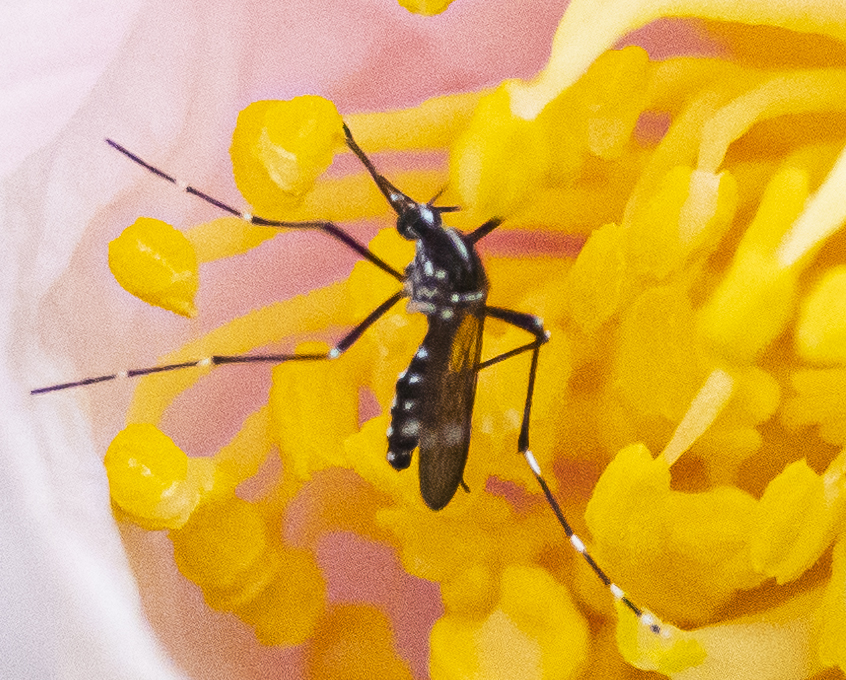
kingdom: Animalia
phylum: Arthropoda
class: Insecta
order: Diptera
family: Culicidae
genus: Aedes
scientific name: Aedes albopictus
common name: Tiger mosquito
